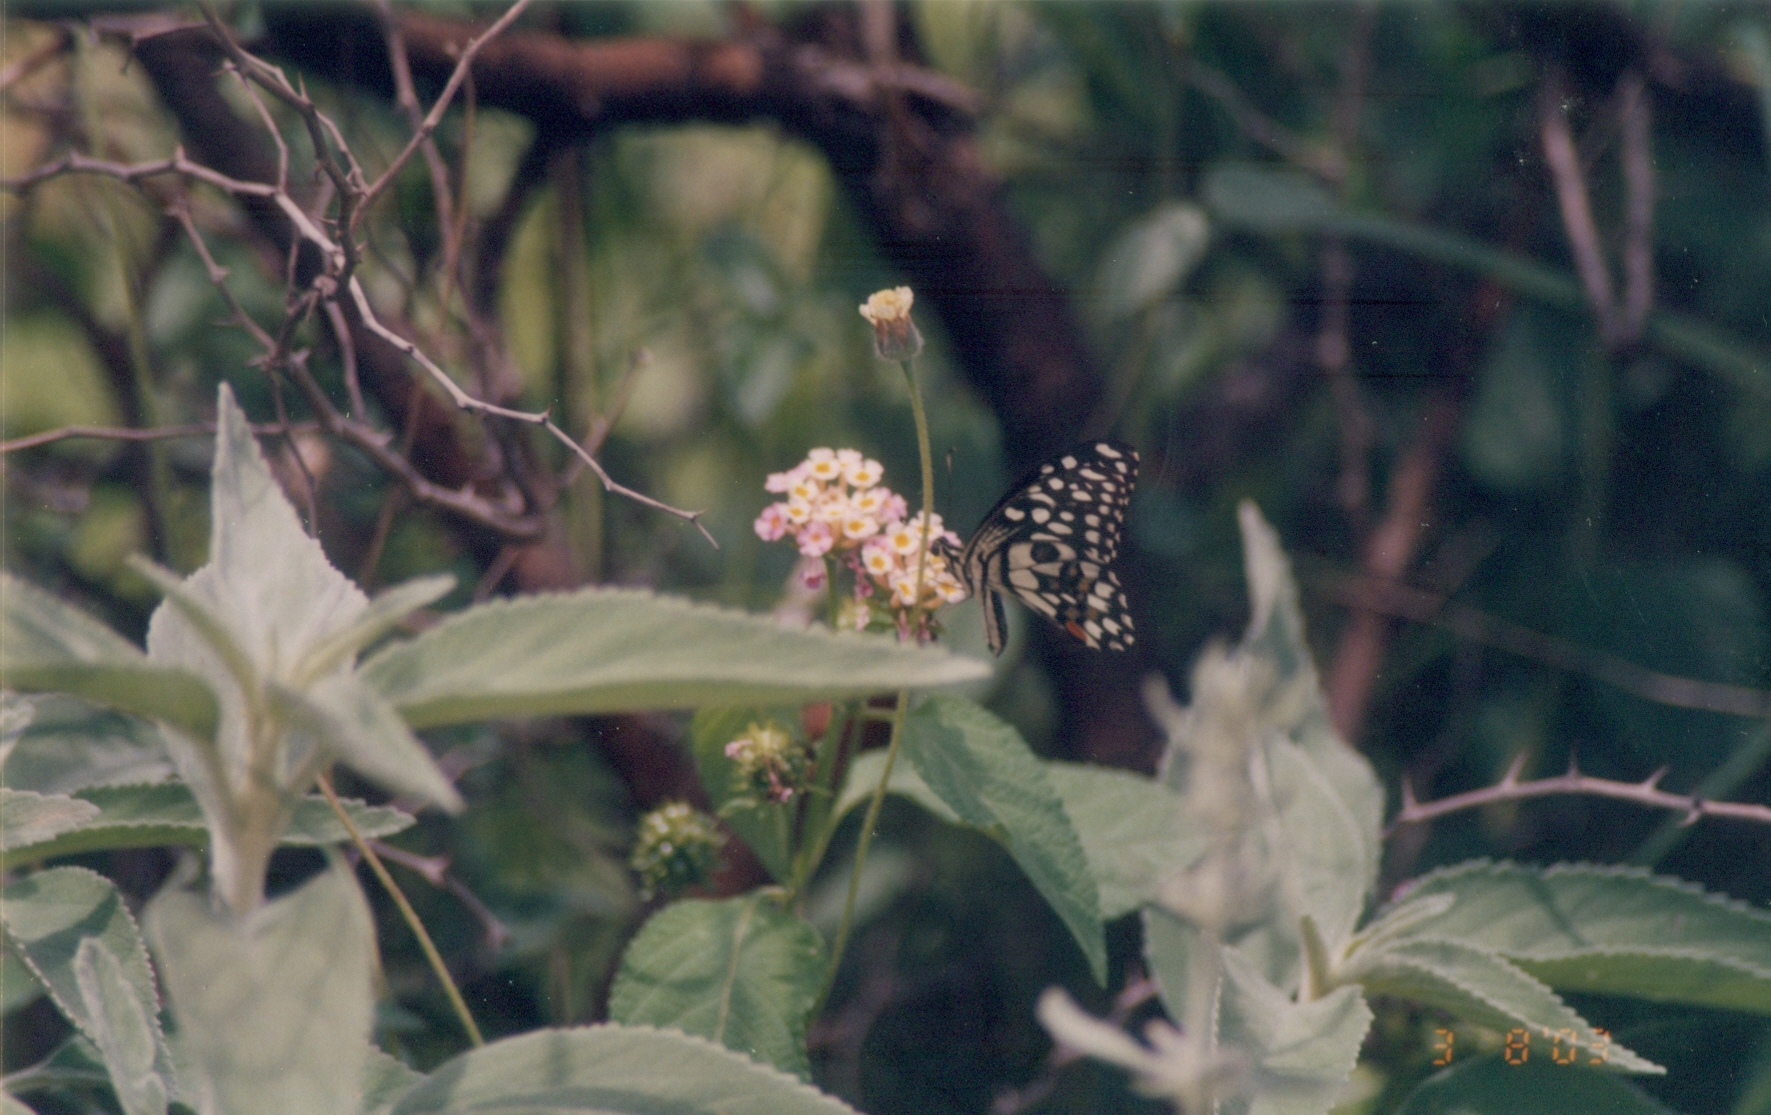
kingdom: Animalia
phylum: Arthropoda
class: Insecta
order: Lepidoptera
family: Papilionidae
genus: Papilio
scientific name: Papilio demoleus
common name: Lime butterfly
